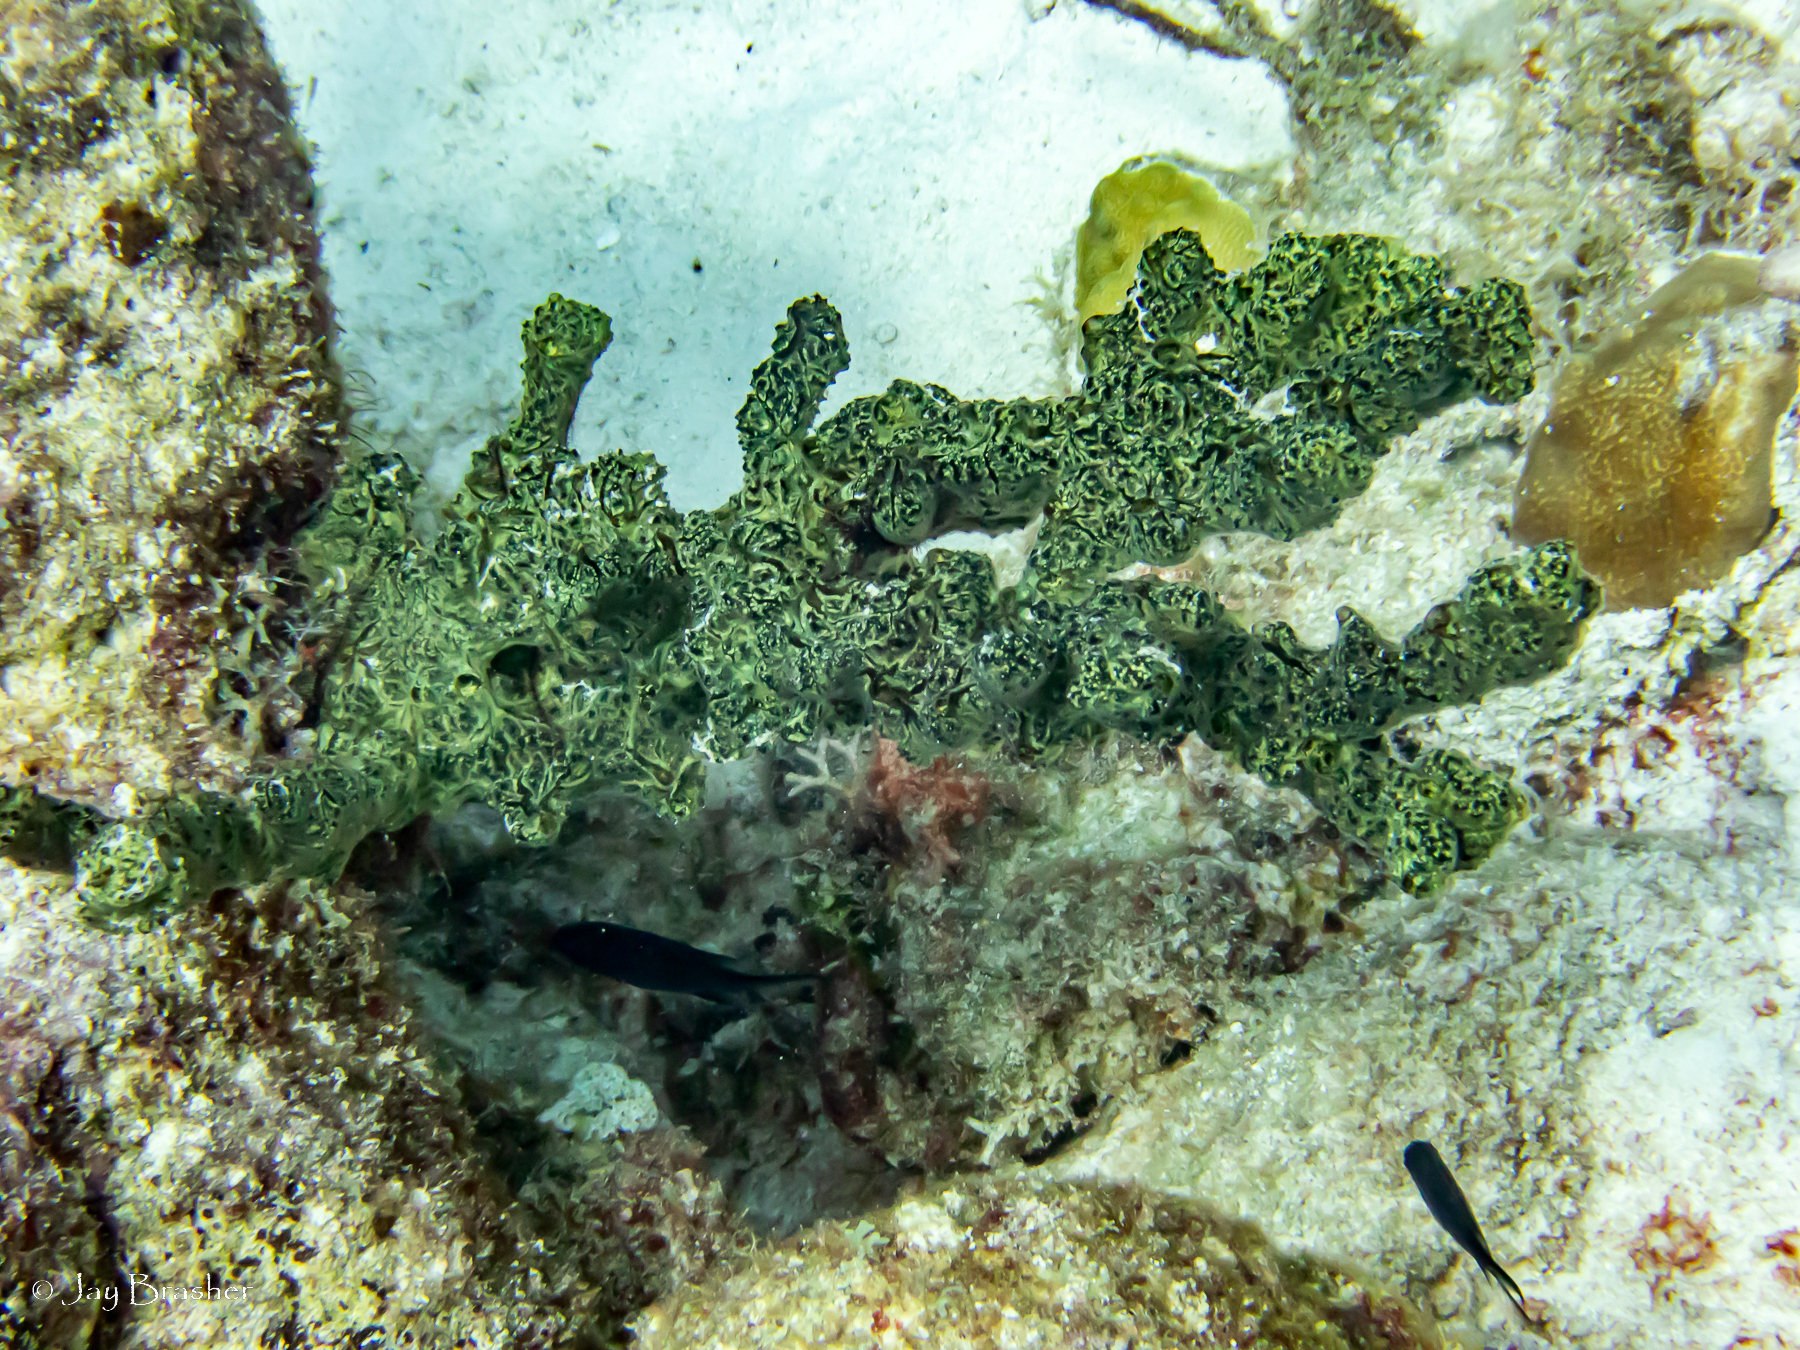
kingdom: Animalia
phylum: Porifera
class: Demospongiae
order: Poecilosclerida
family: Iotrochotidae
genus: Iotrochota
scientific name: Iotrochota birotulata
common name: Purple bleeding sponge
